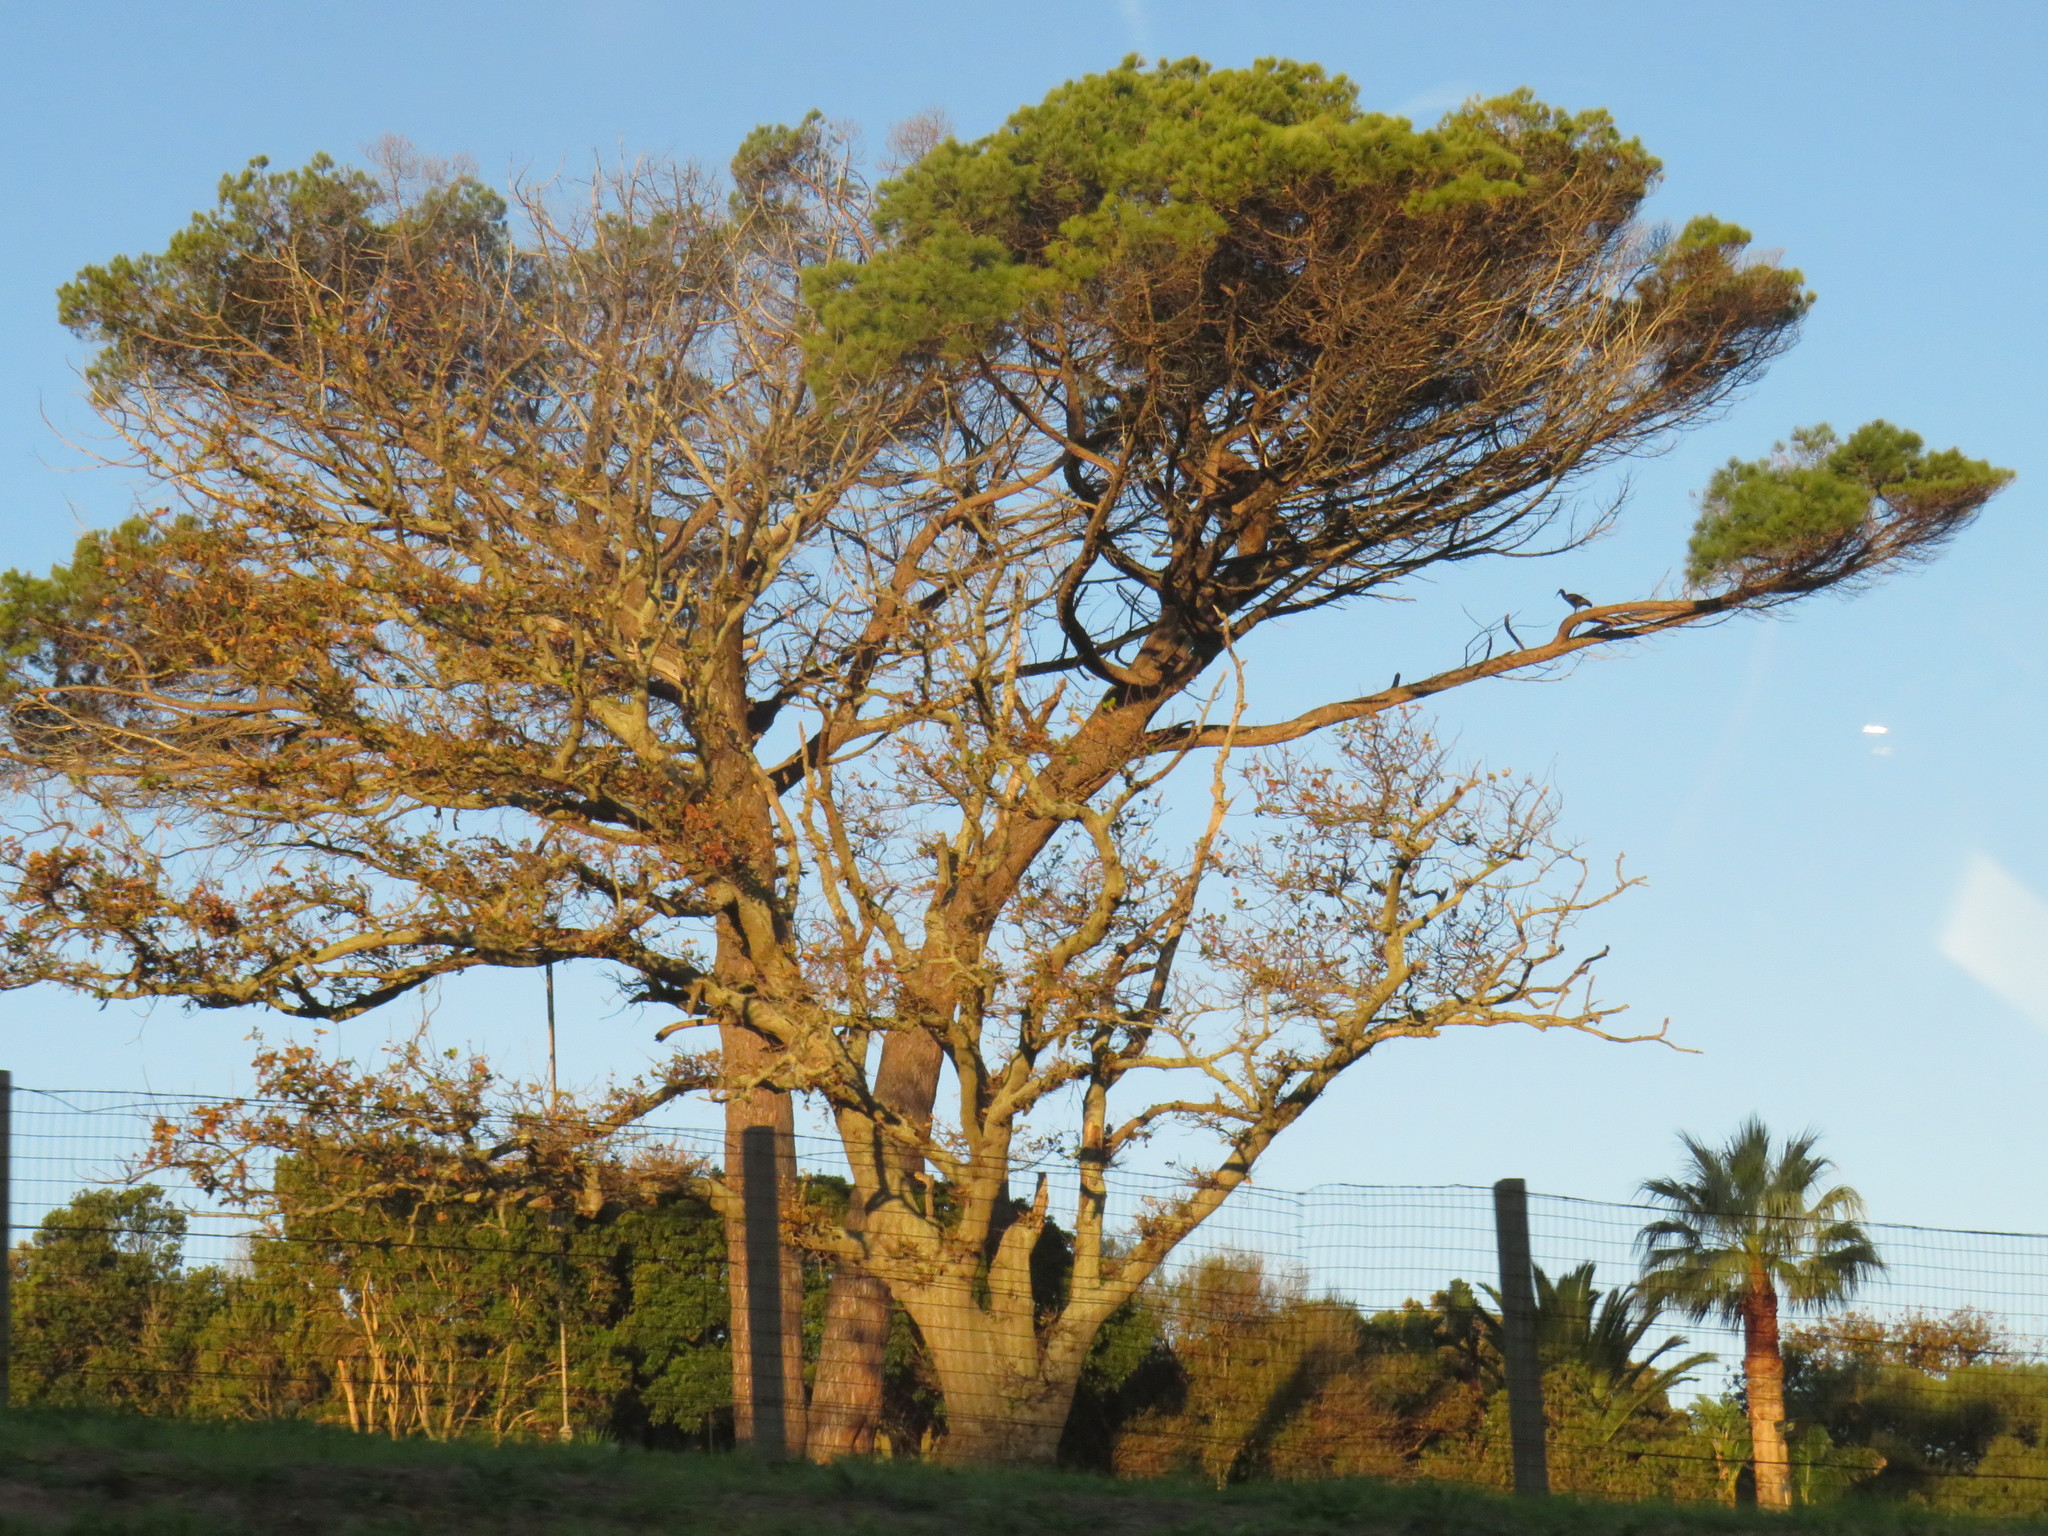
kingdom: Plantae
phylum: Tracheophyta
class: Magnoliopsida
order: Fagales
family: Fagaceae
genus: Quercus
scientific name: Quercus robur
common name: Pedunculate oak
